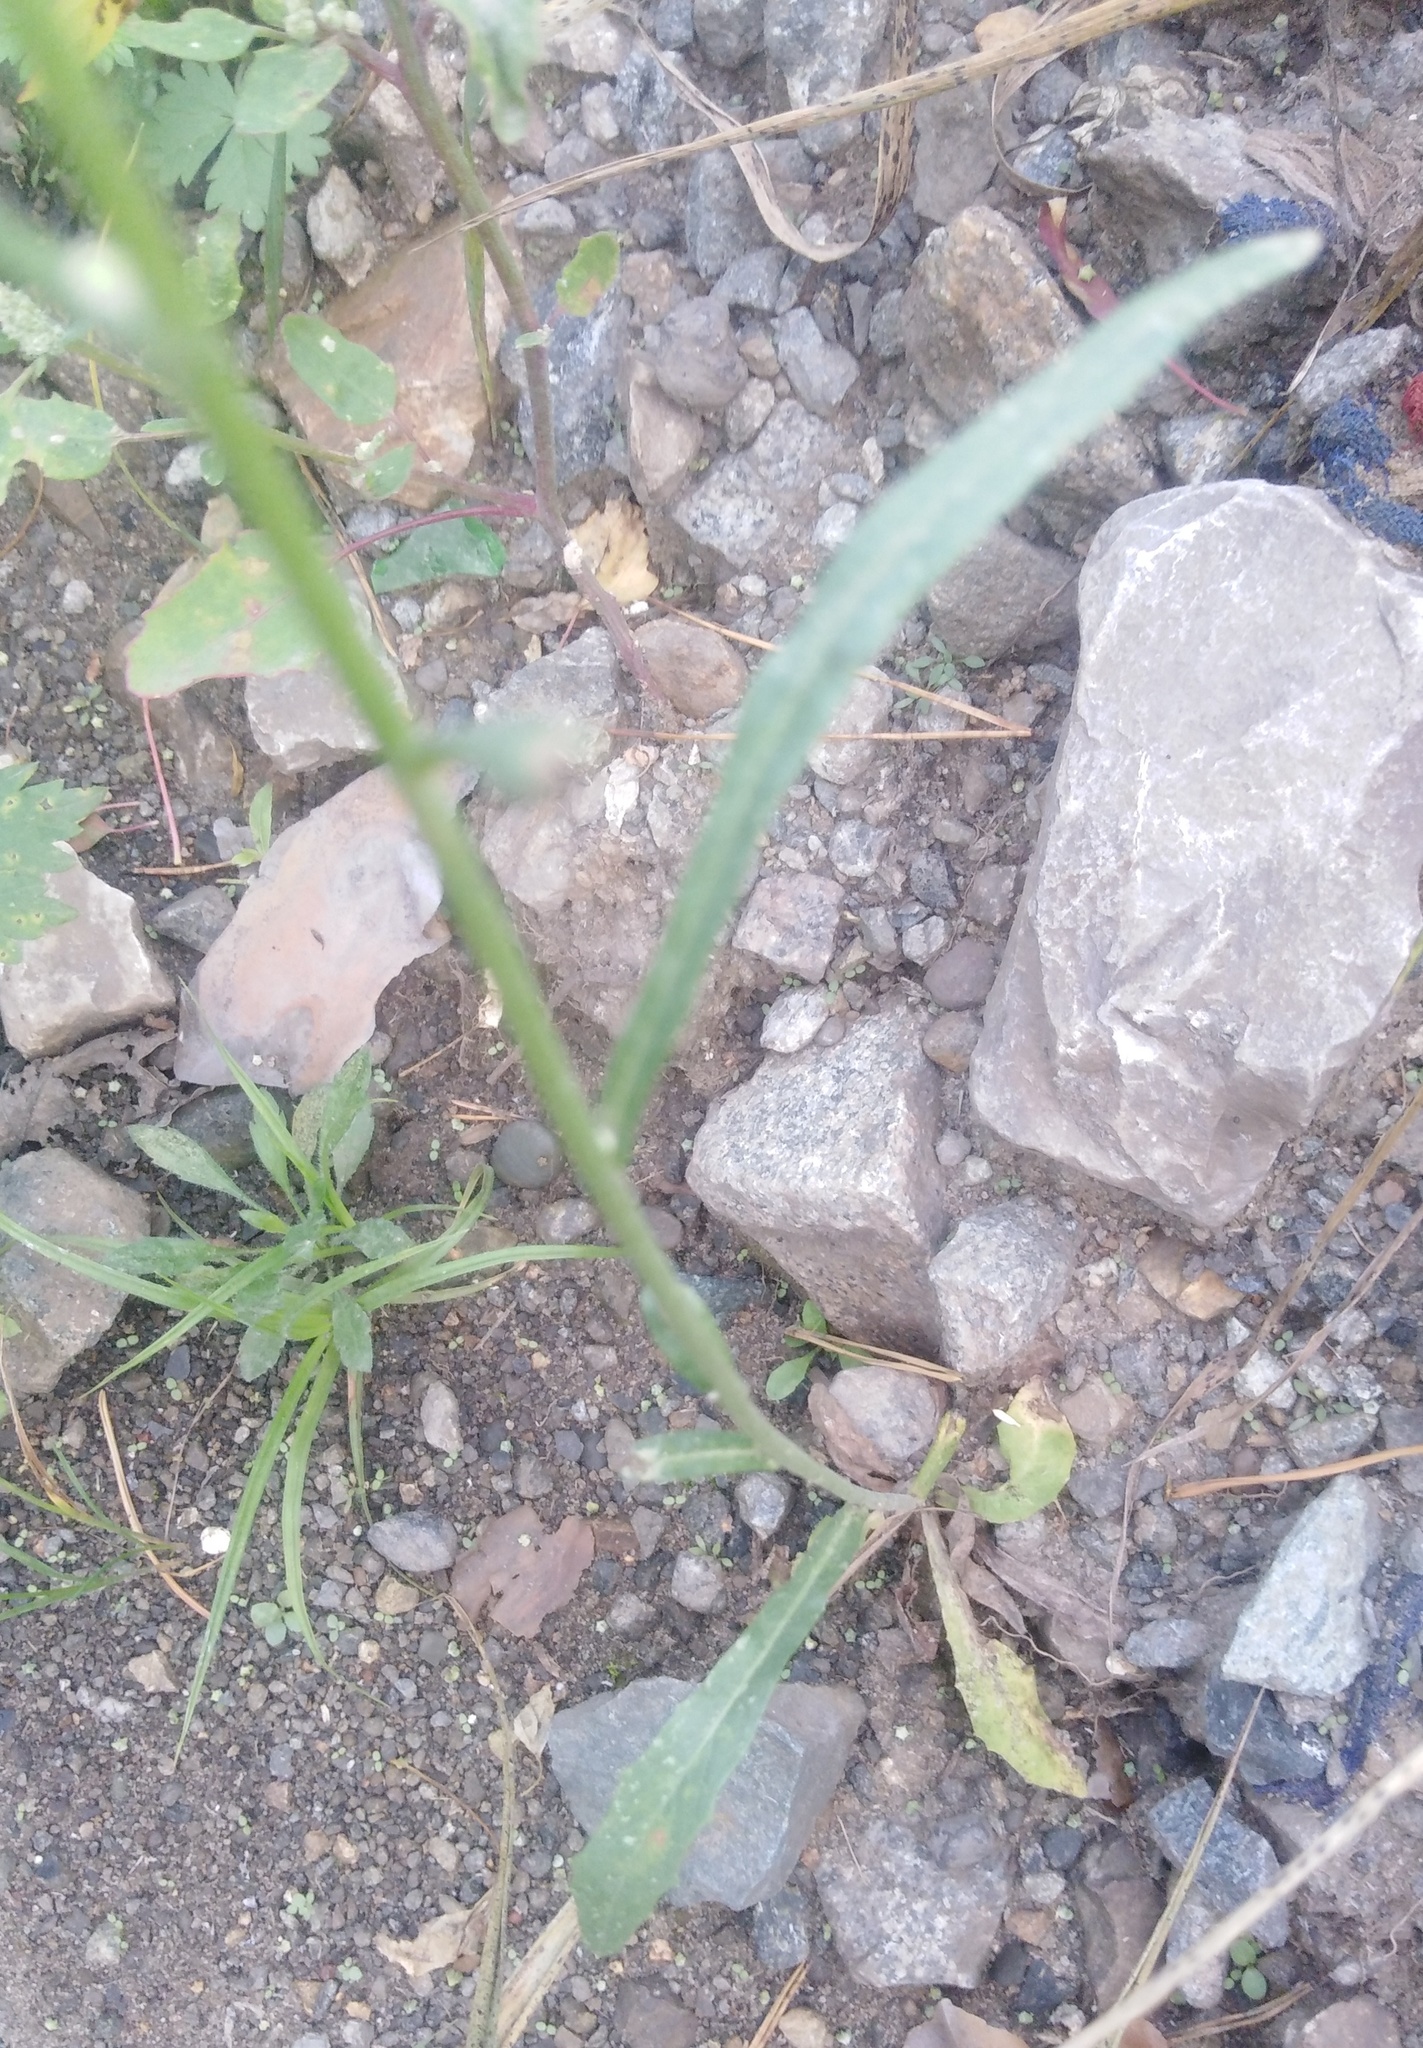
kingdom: Plantae
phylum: Tracheophyta
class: Magnoliopsida
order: Asterales
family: Asteraceae
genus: Crepis
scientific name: Crepis tectorum
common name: Narrow-leaved hawk's-beard
